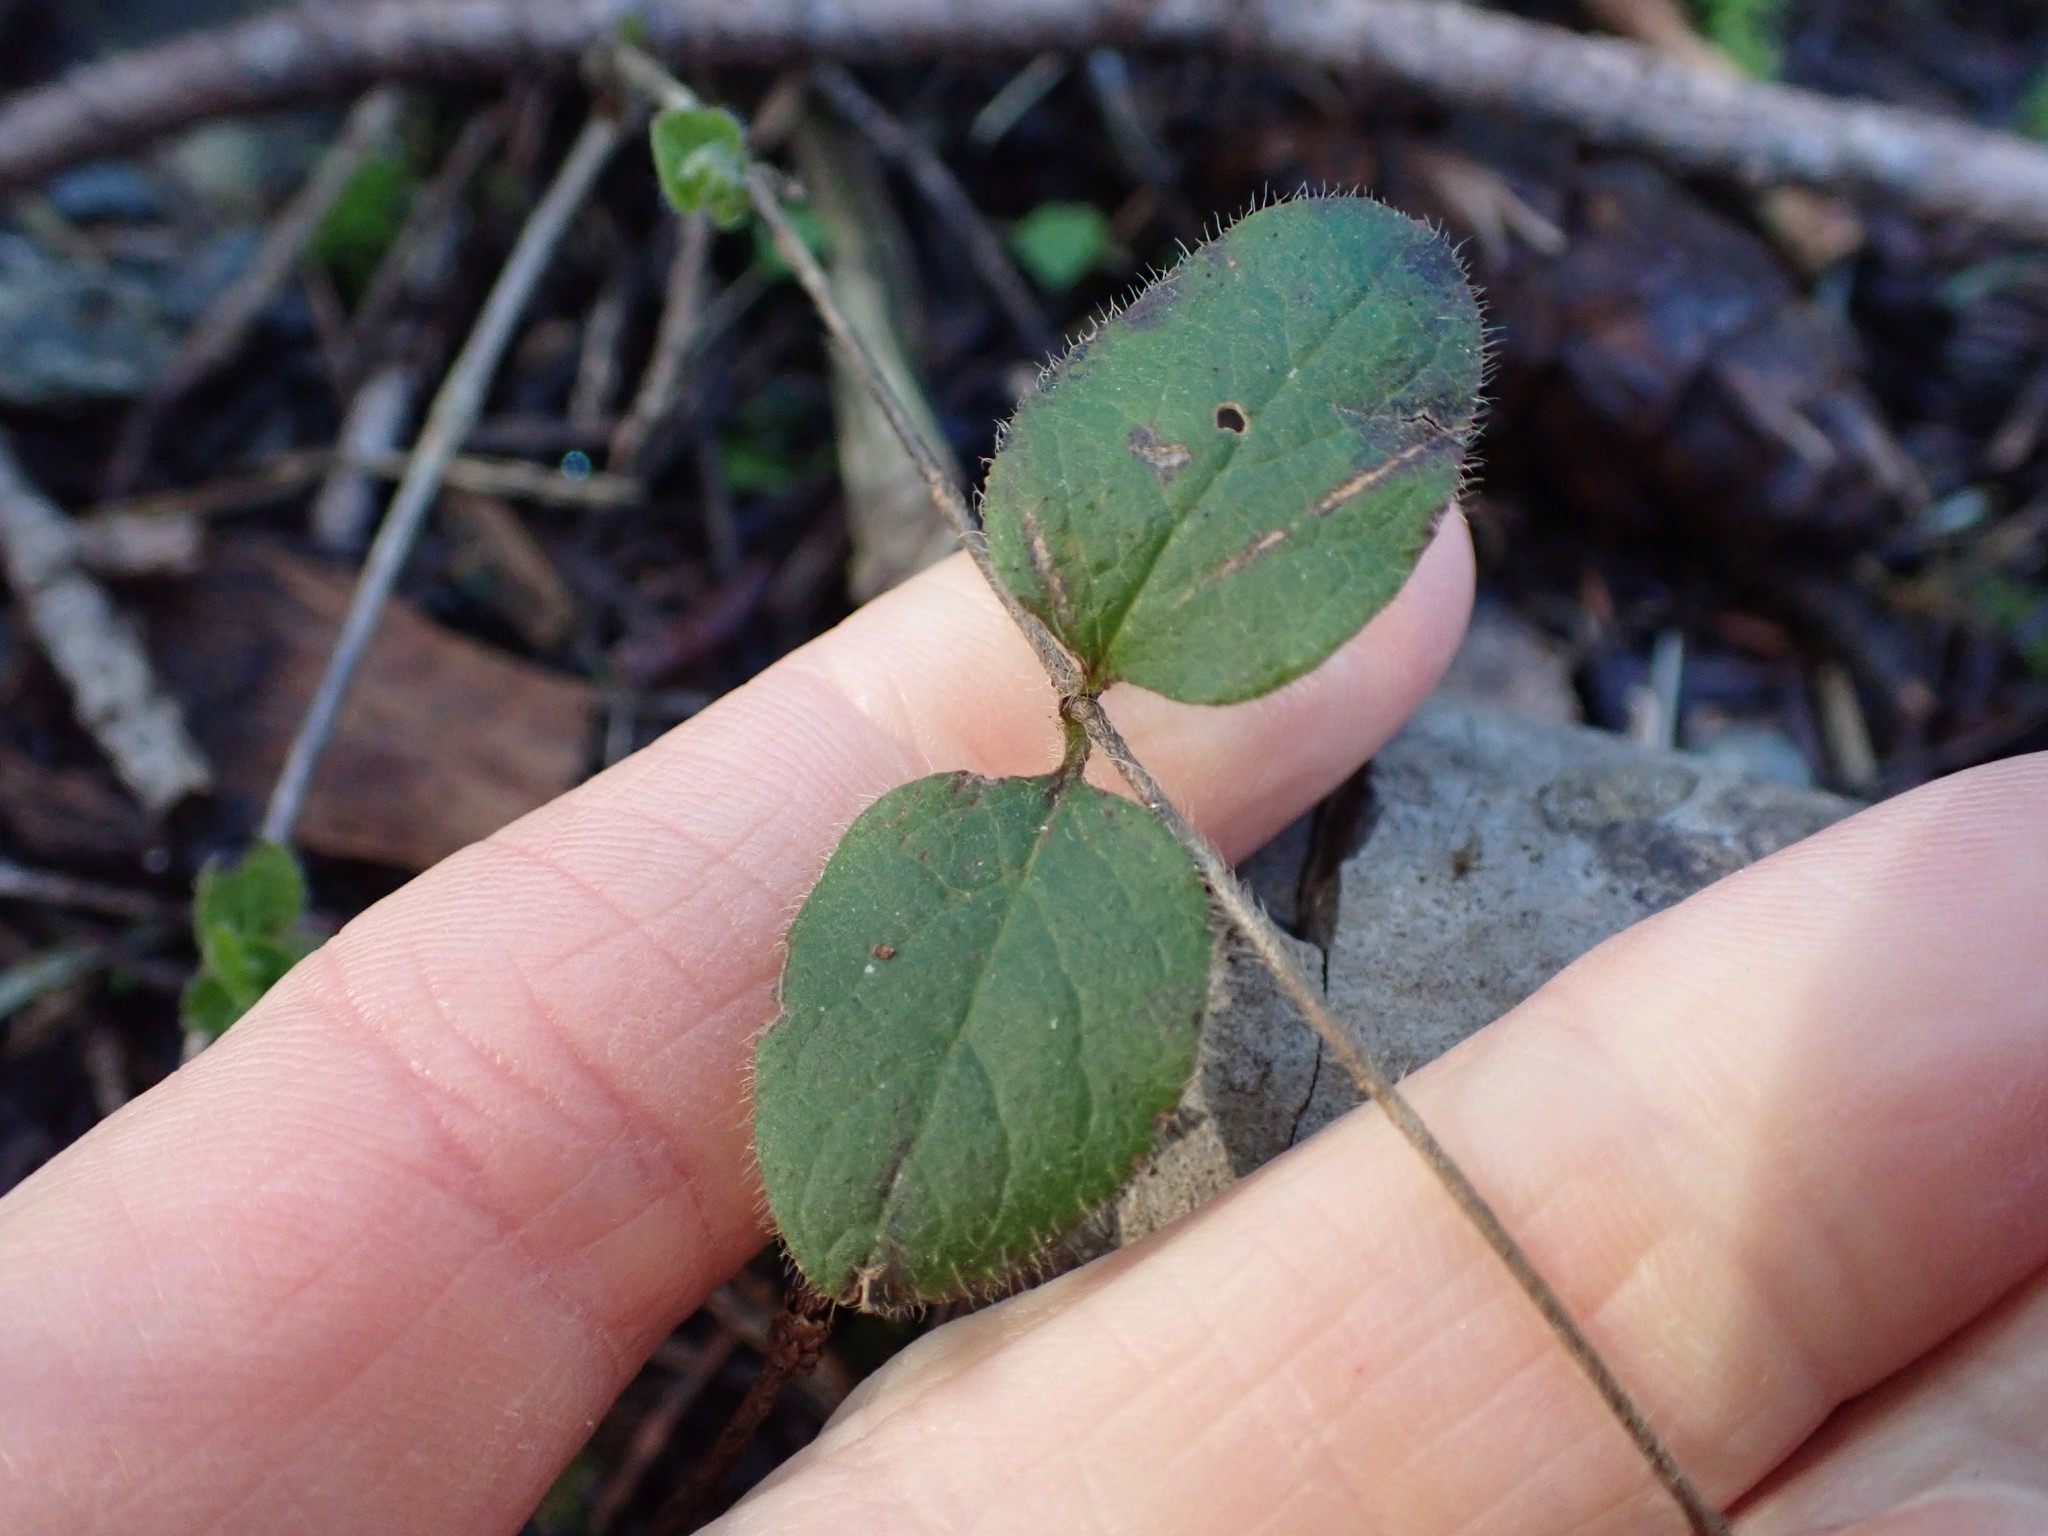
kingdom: Plantae
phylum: Tracheophyta
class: Magnoliopsida
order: Dipsacales
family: Caprifoliaceae
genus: Lonicera
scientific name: Lonicera hispidula
